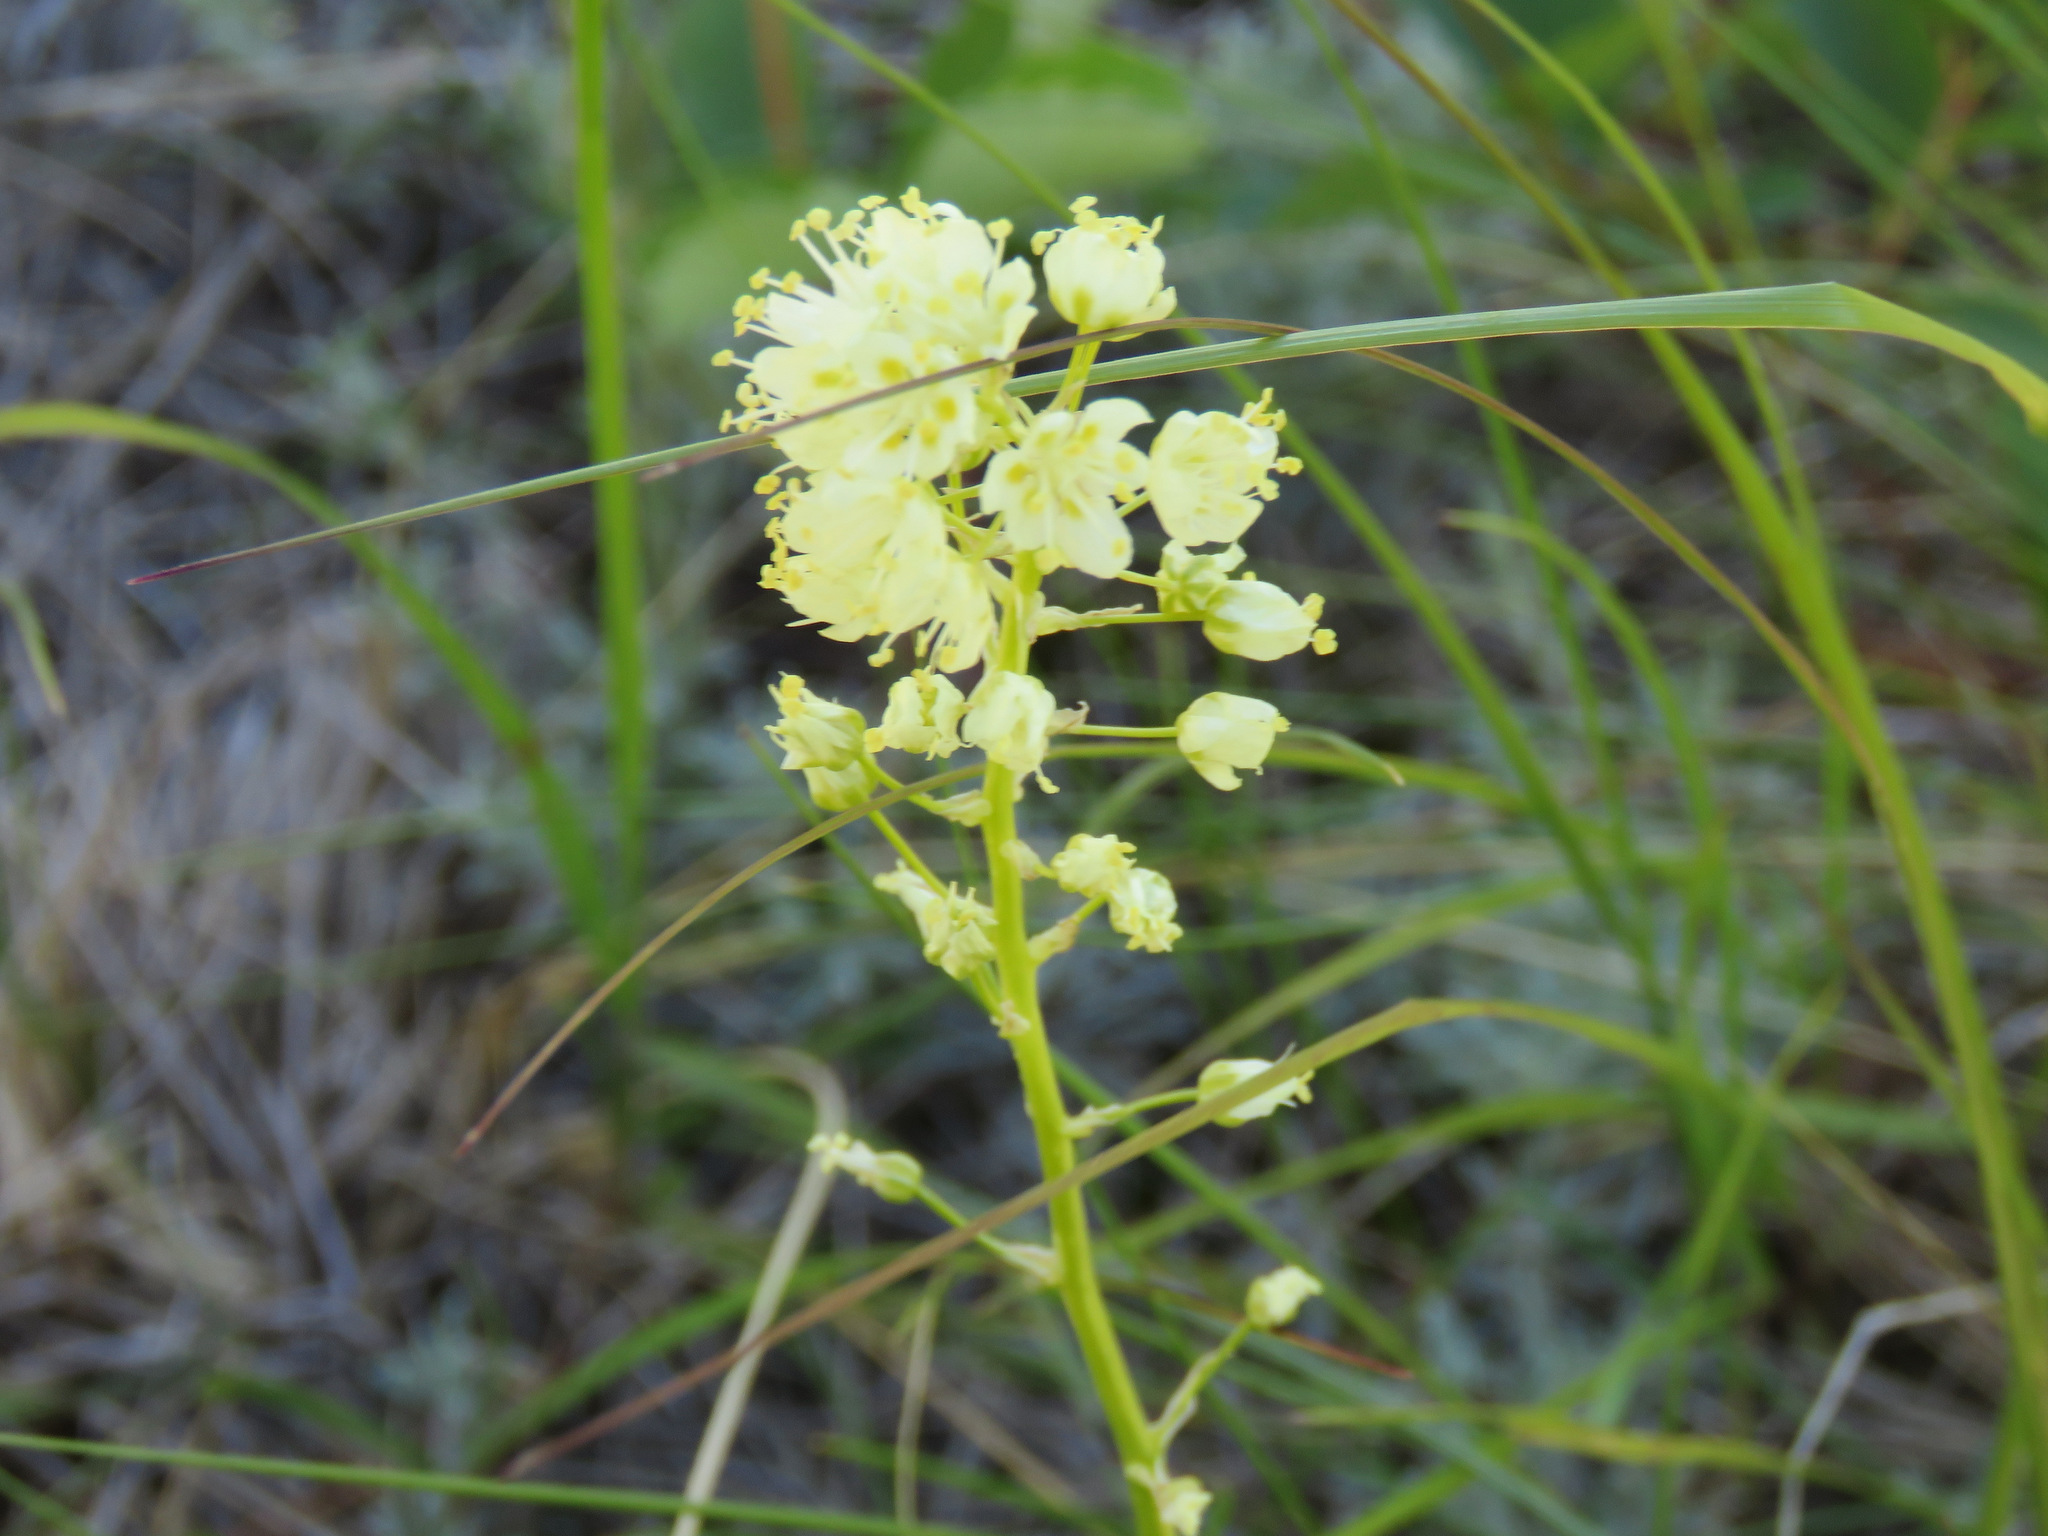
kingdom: Plantae
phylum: Tracheophyta
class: Liliopsida
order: Liliales
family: Melanthiaceae
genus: Toxicoscordion
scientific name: Toxicoscordion venenosum
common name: Meadow death camas
